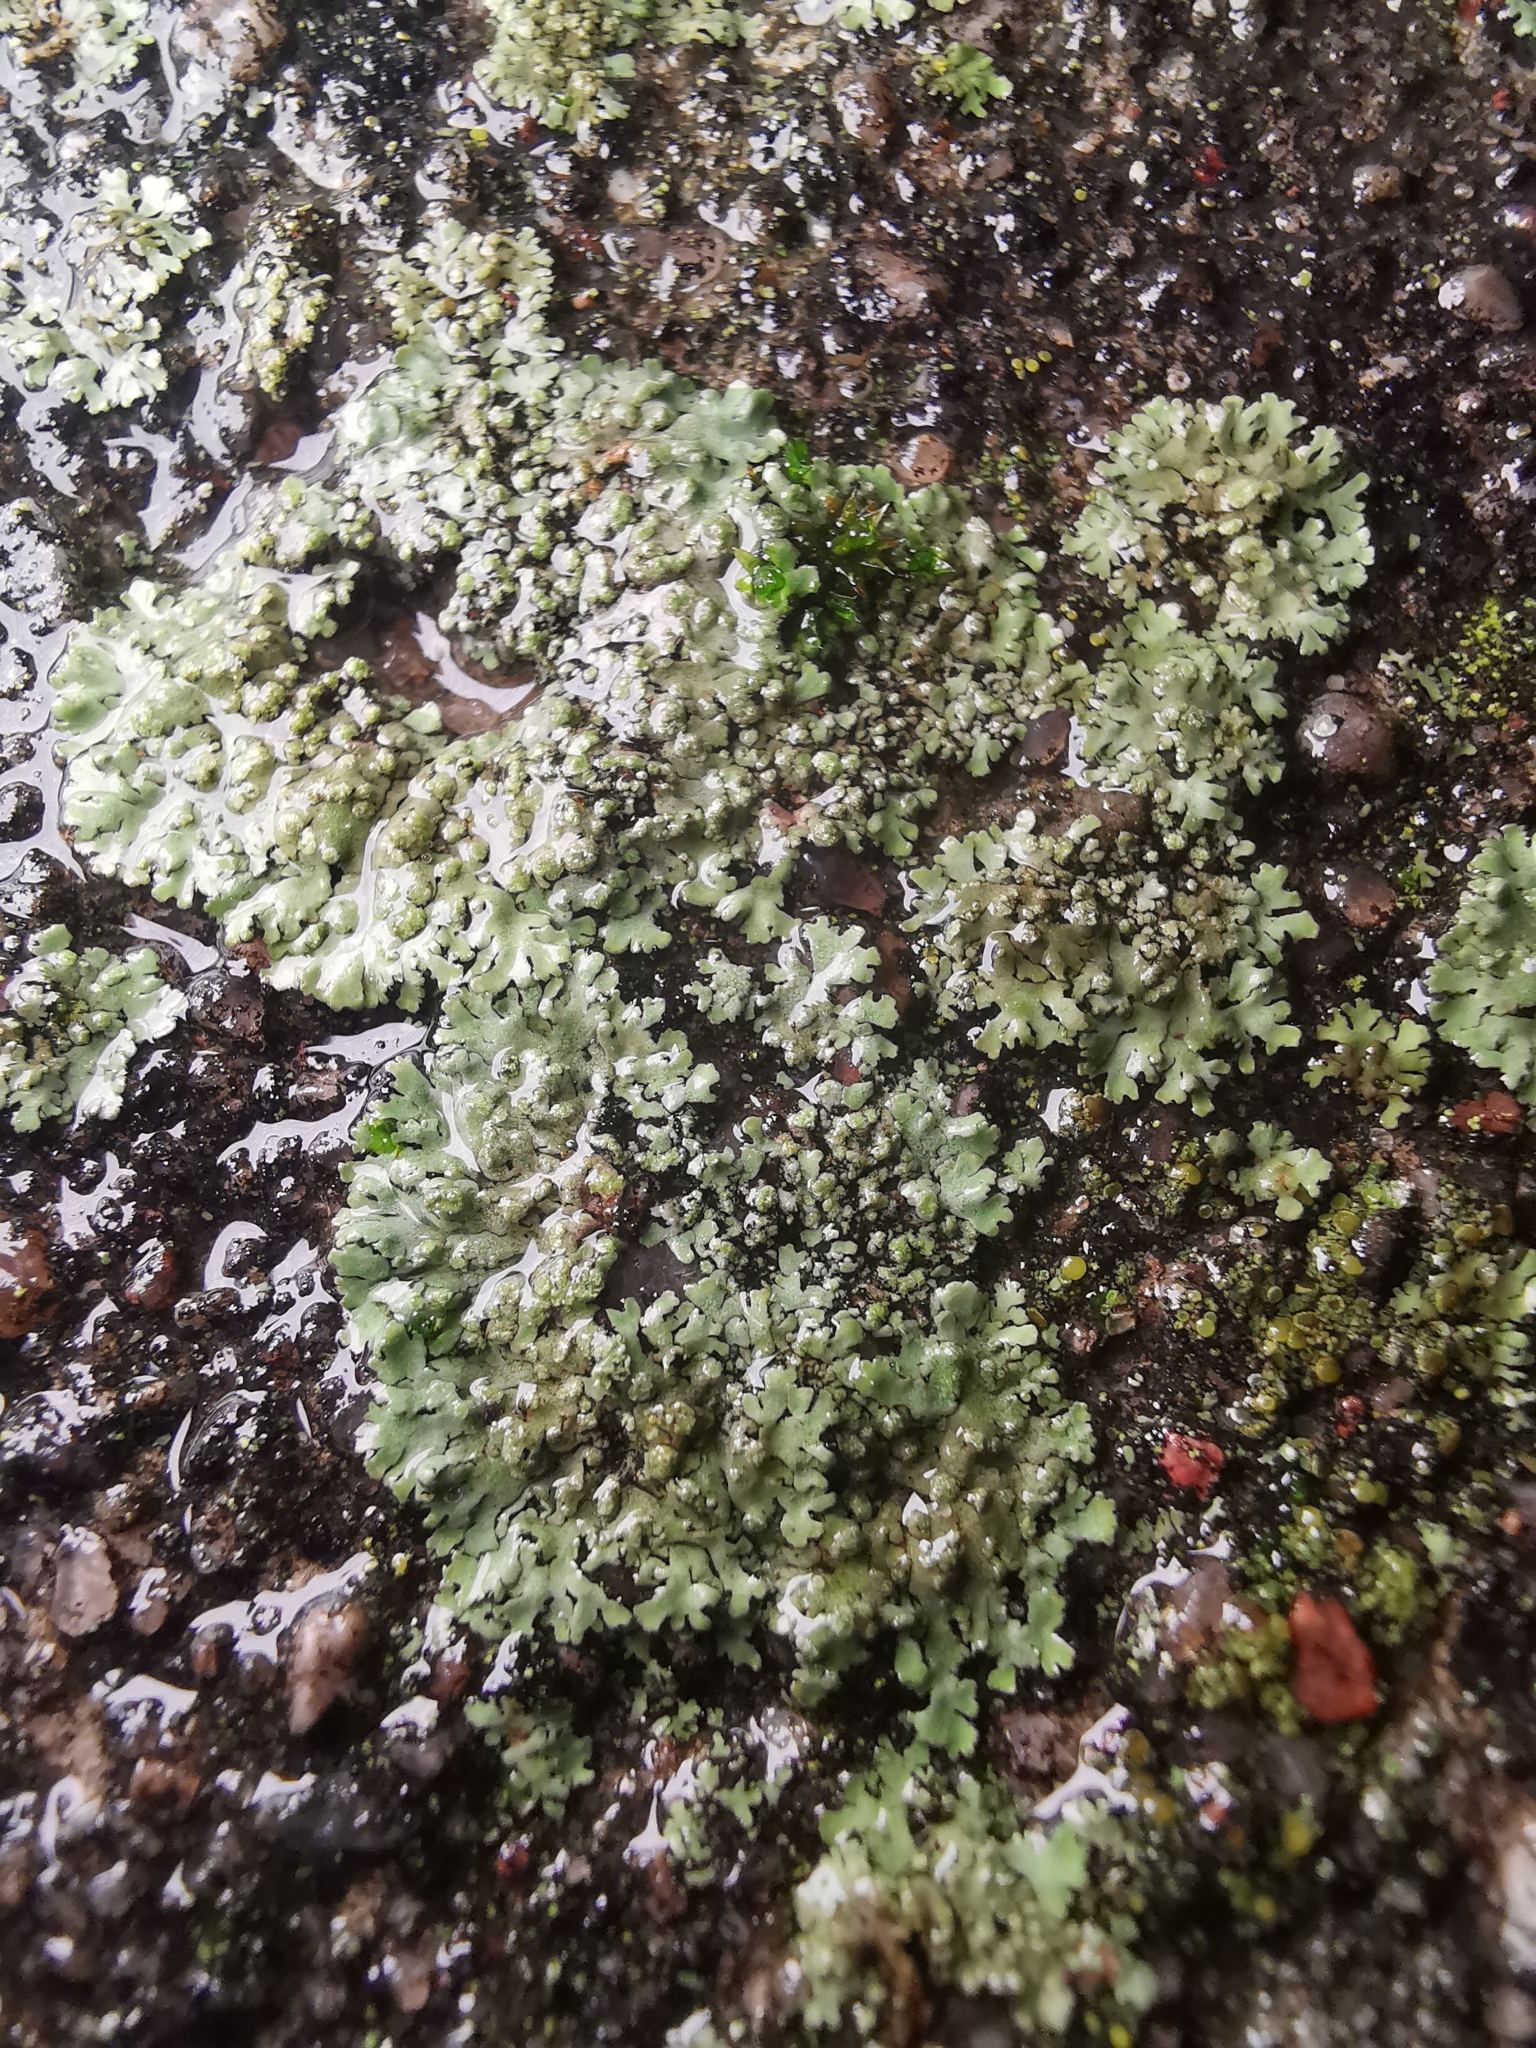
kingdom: Fungi
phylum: Ascomycota
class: Lecanoromycetes
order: Caliciales
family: Physciaceae
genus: Phaeophyscia
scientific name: Phaeophyscia orbicularis
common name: Mealy shadow lichen
